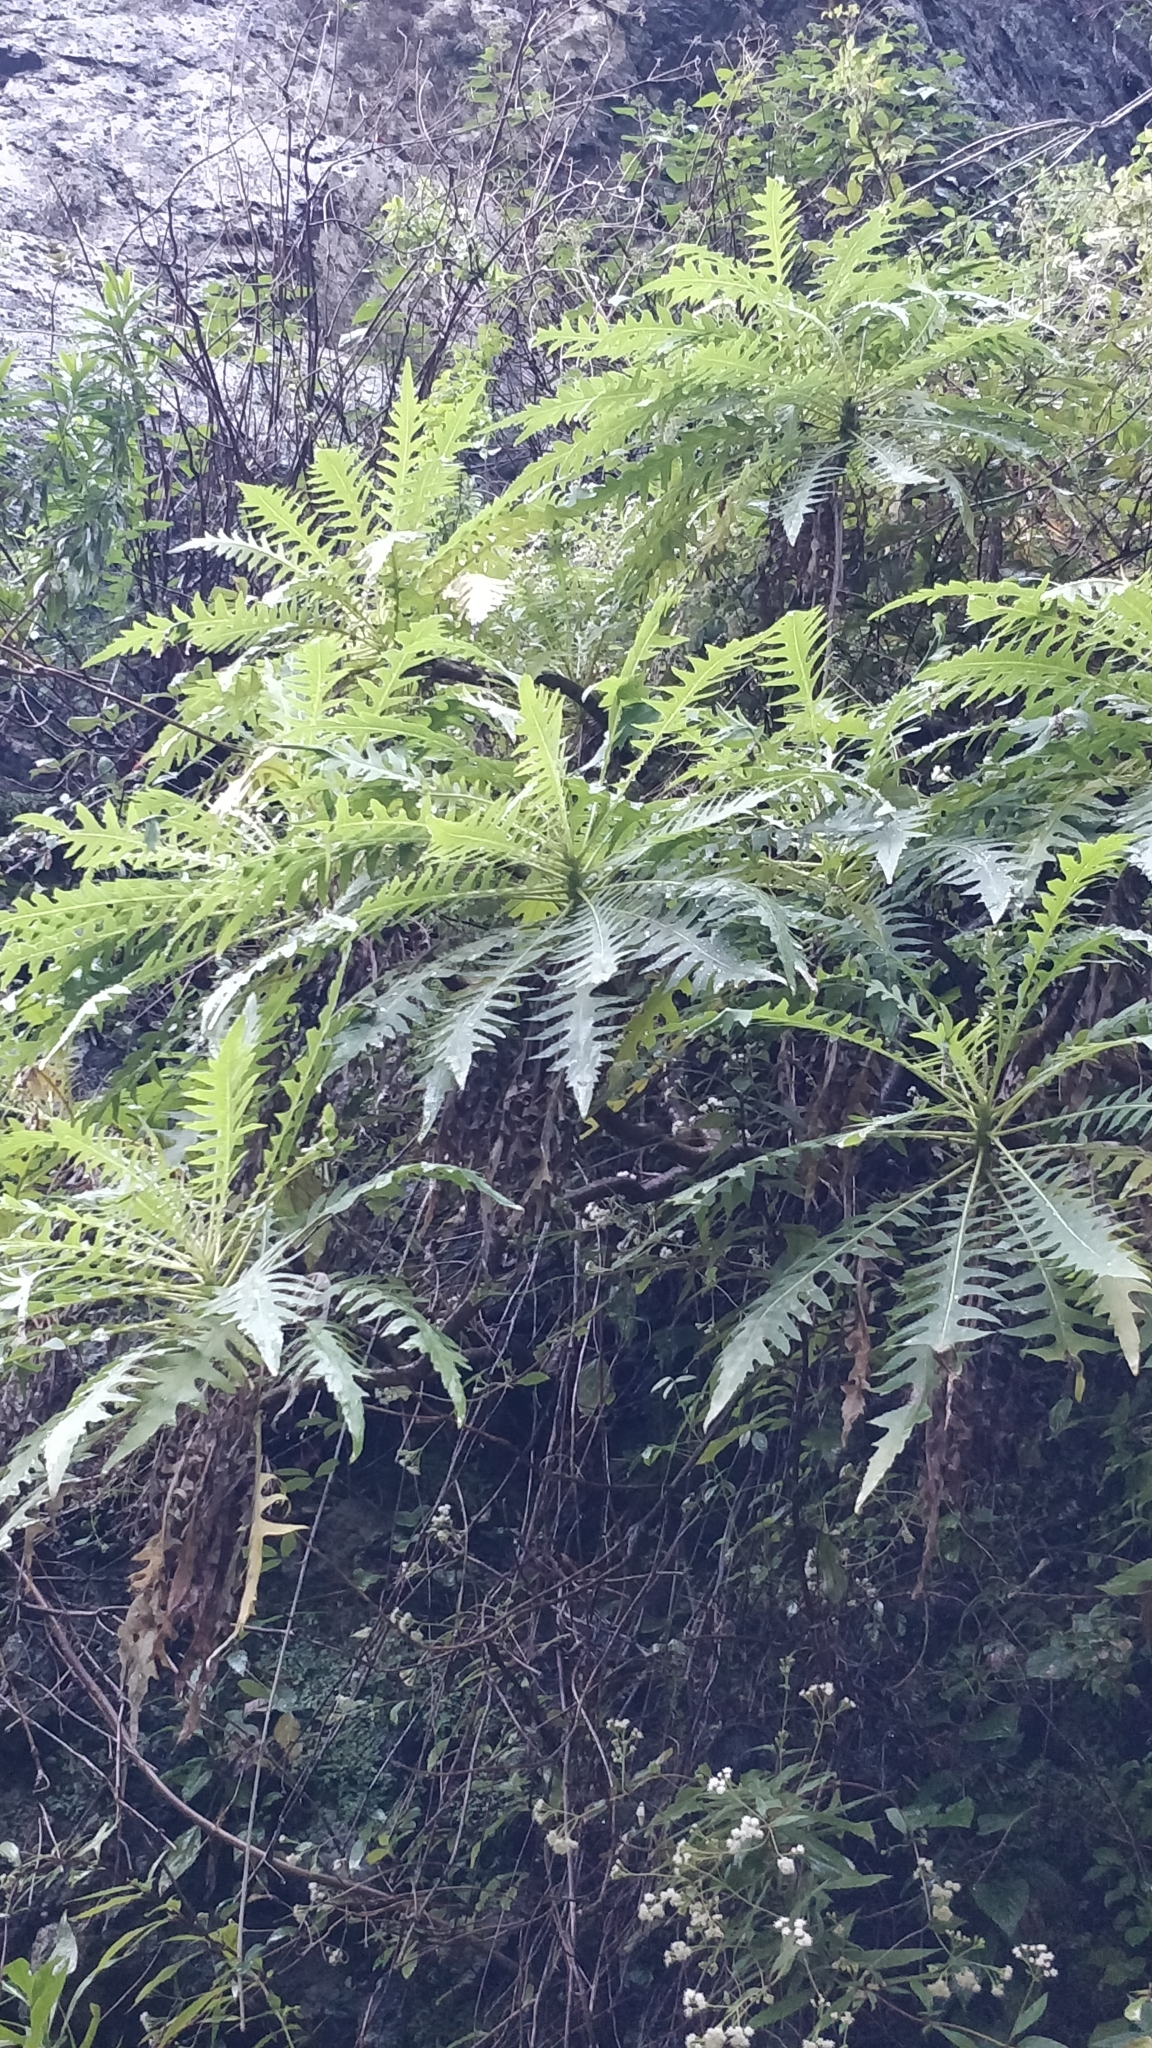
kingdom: Plantae
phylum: Tracheophyta
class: Magnoliopsida
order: Asterales
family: Asteraceae
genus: Sonchus
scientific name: Sonchus pinnatus
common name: Wing-leaved sow-thistle
